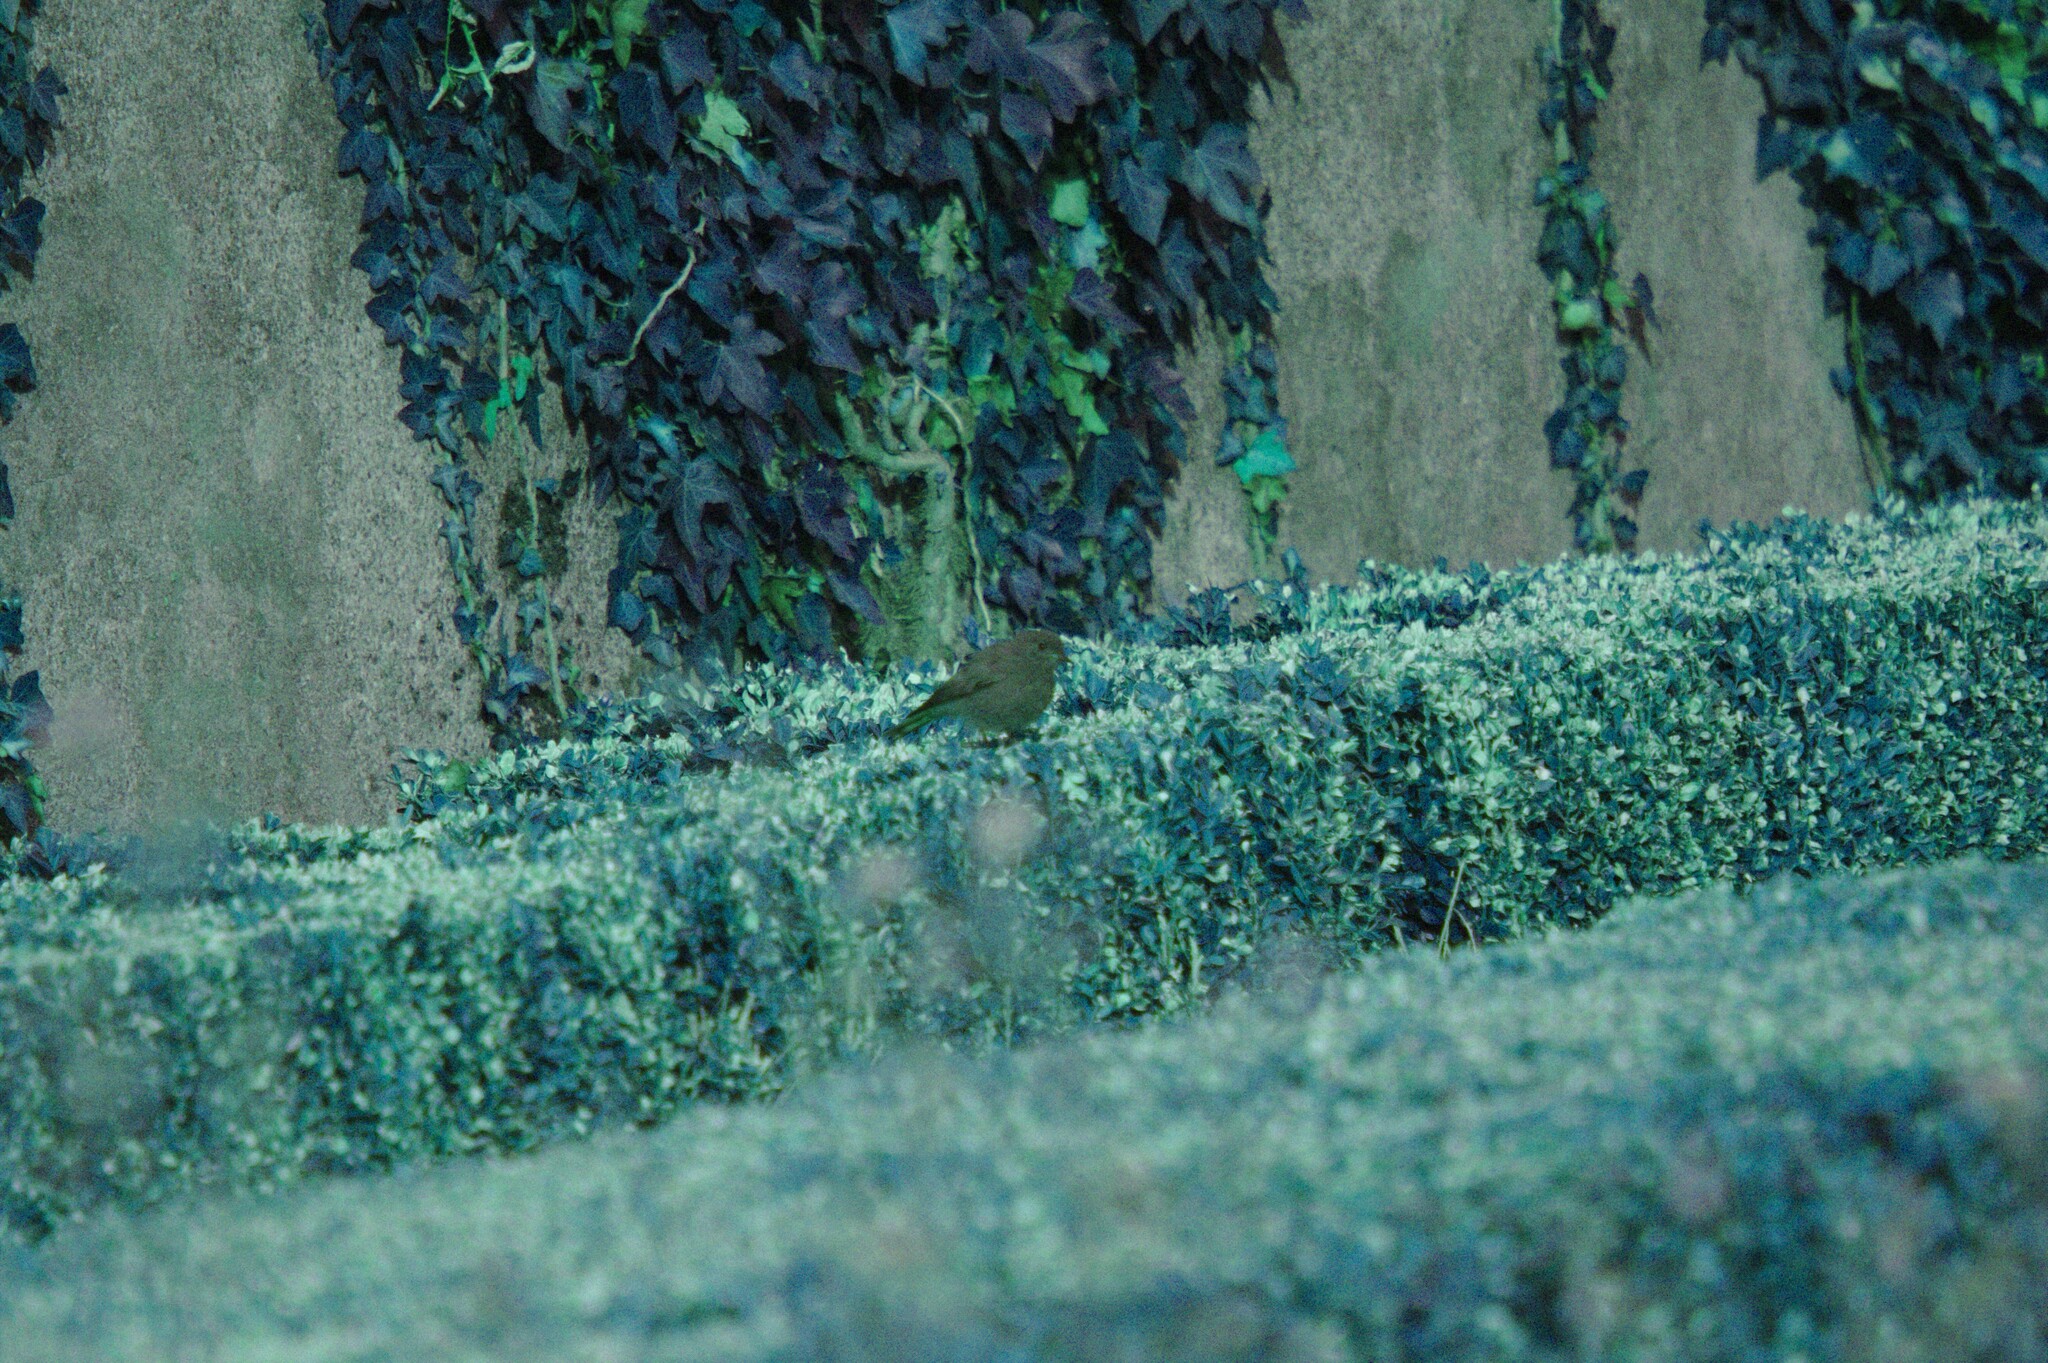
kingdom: Animalia
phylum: Chordata
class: Aves
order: Passeriformes
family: Muscicapidae
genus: Phoenicurus
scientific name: Phoenicurus ochruros
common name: Black redstart
